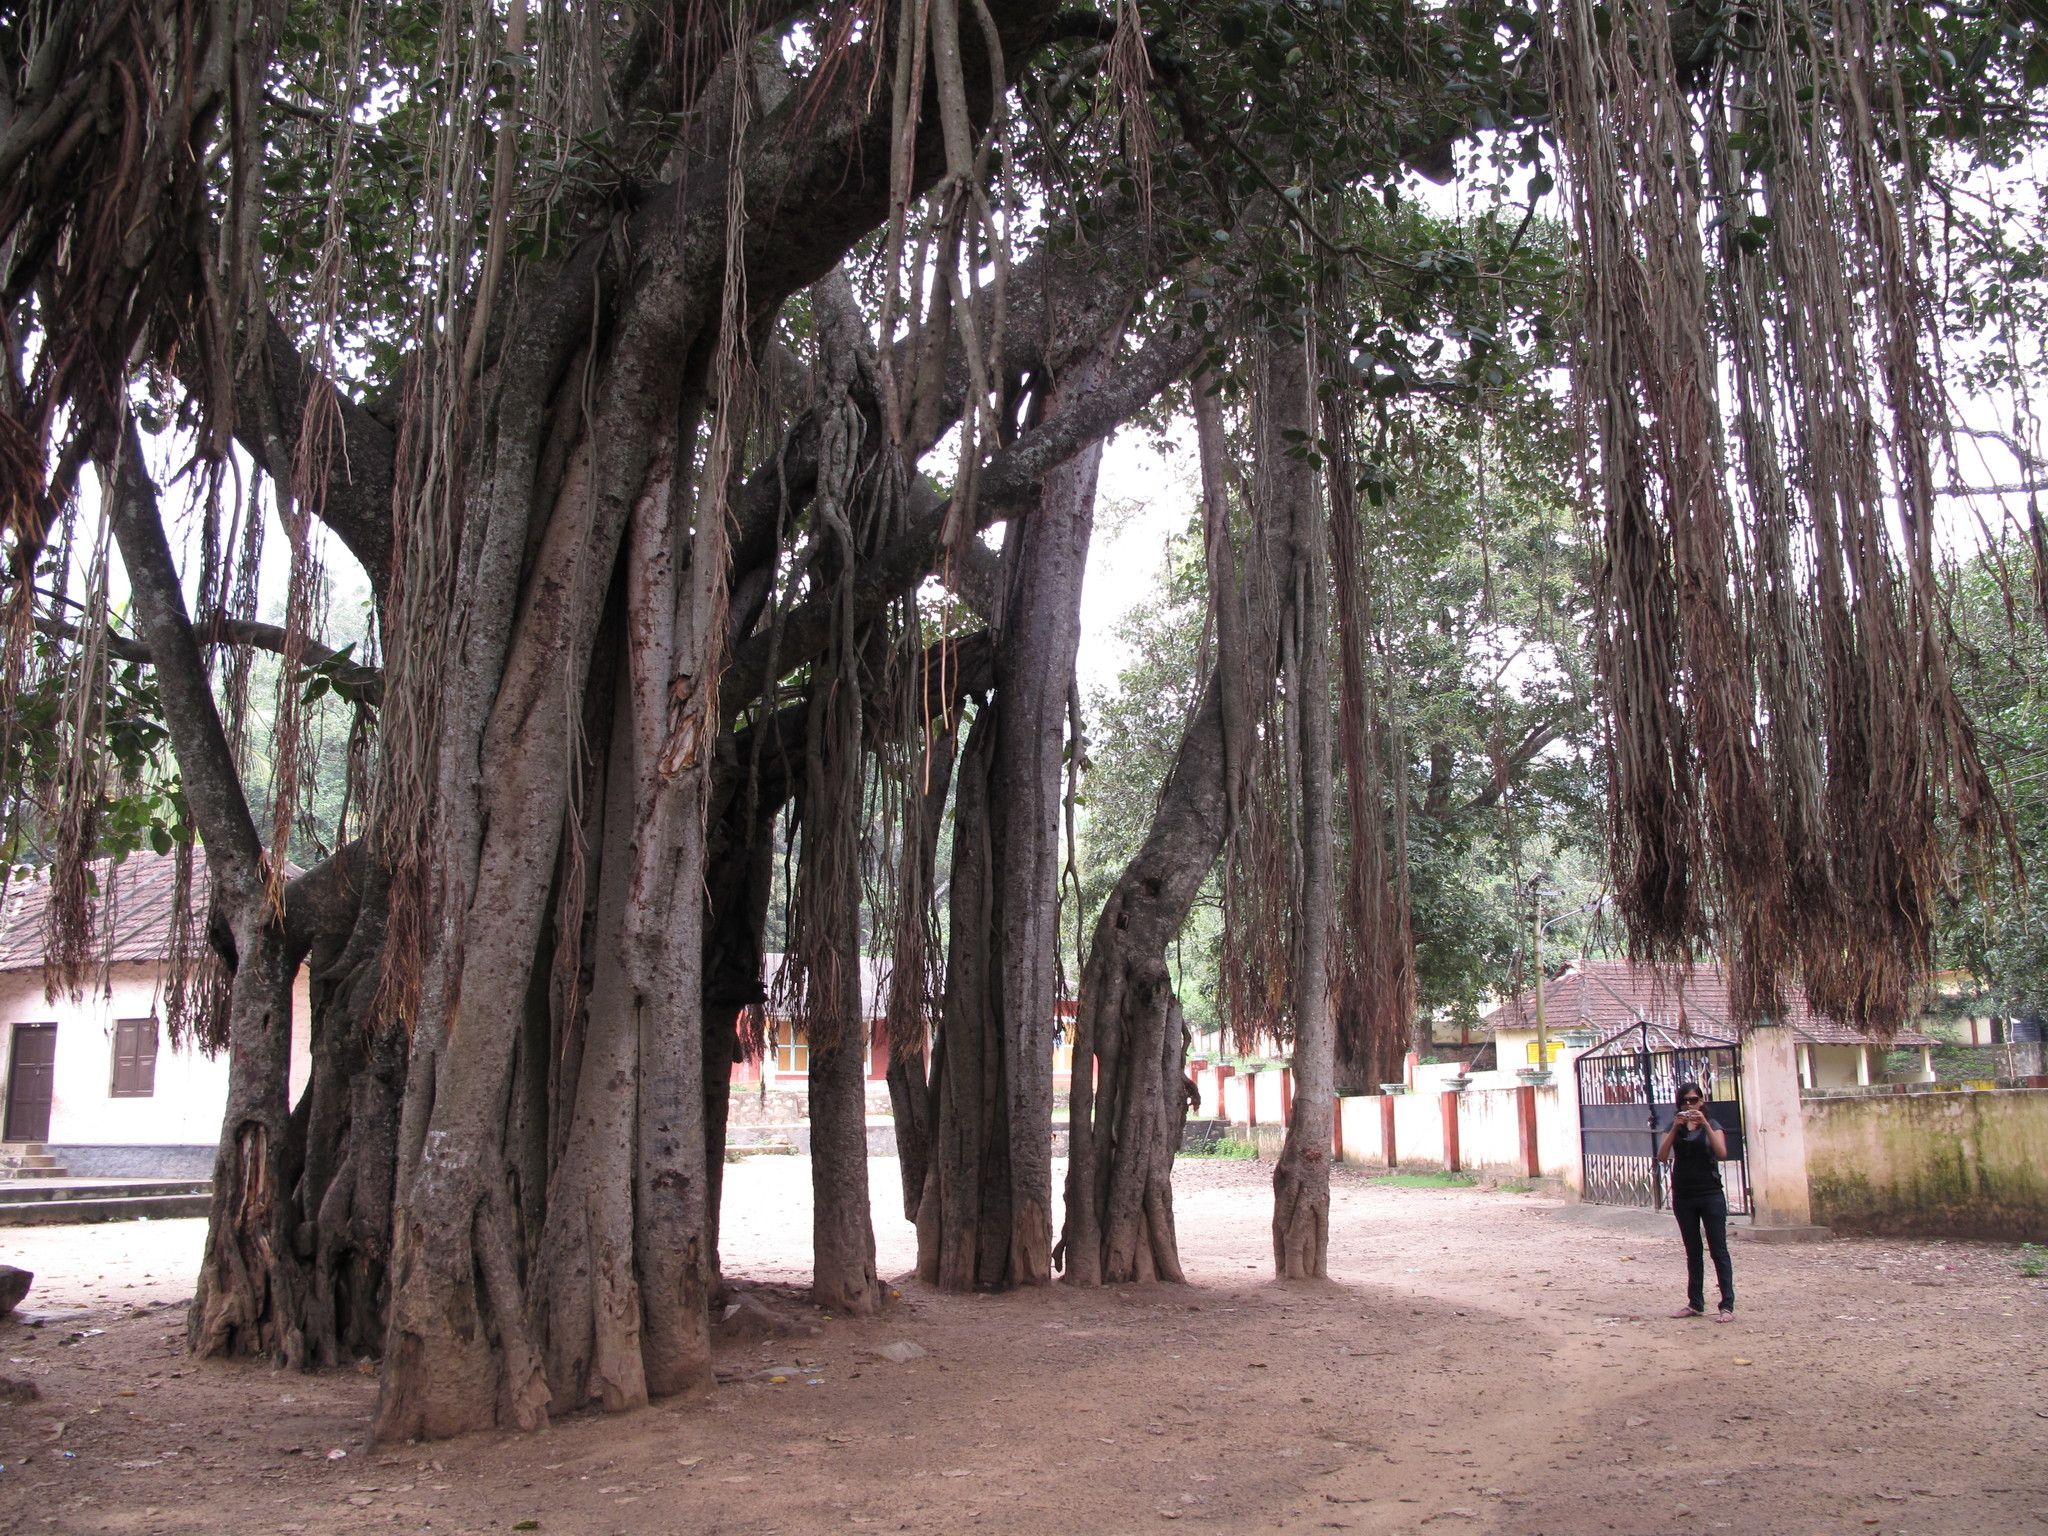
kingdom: Plantae
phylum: Tracheophyta
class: Magnoliopsida
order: Rosales
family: Moraceae
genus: Ficus
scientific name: Ficus benghalensis
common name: Indian banyan
